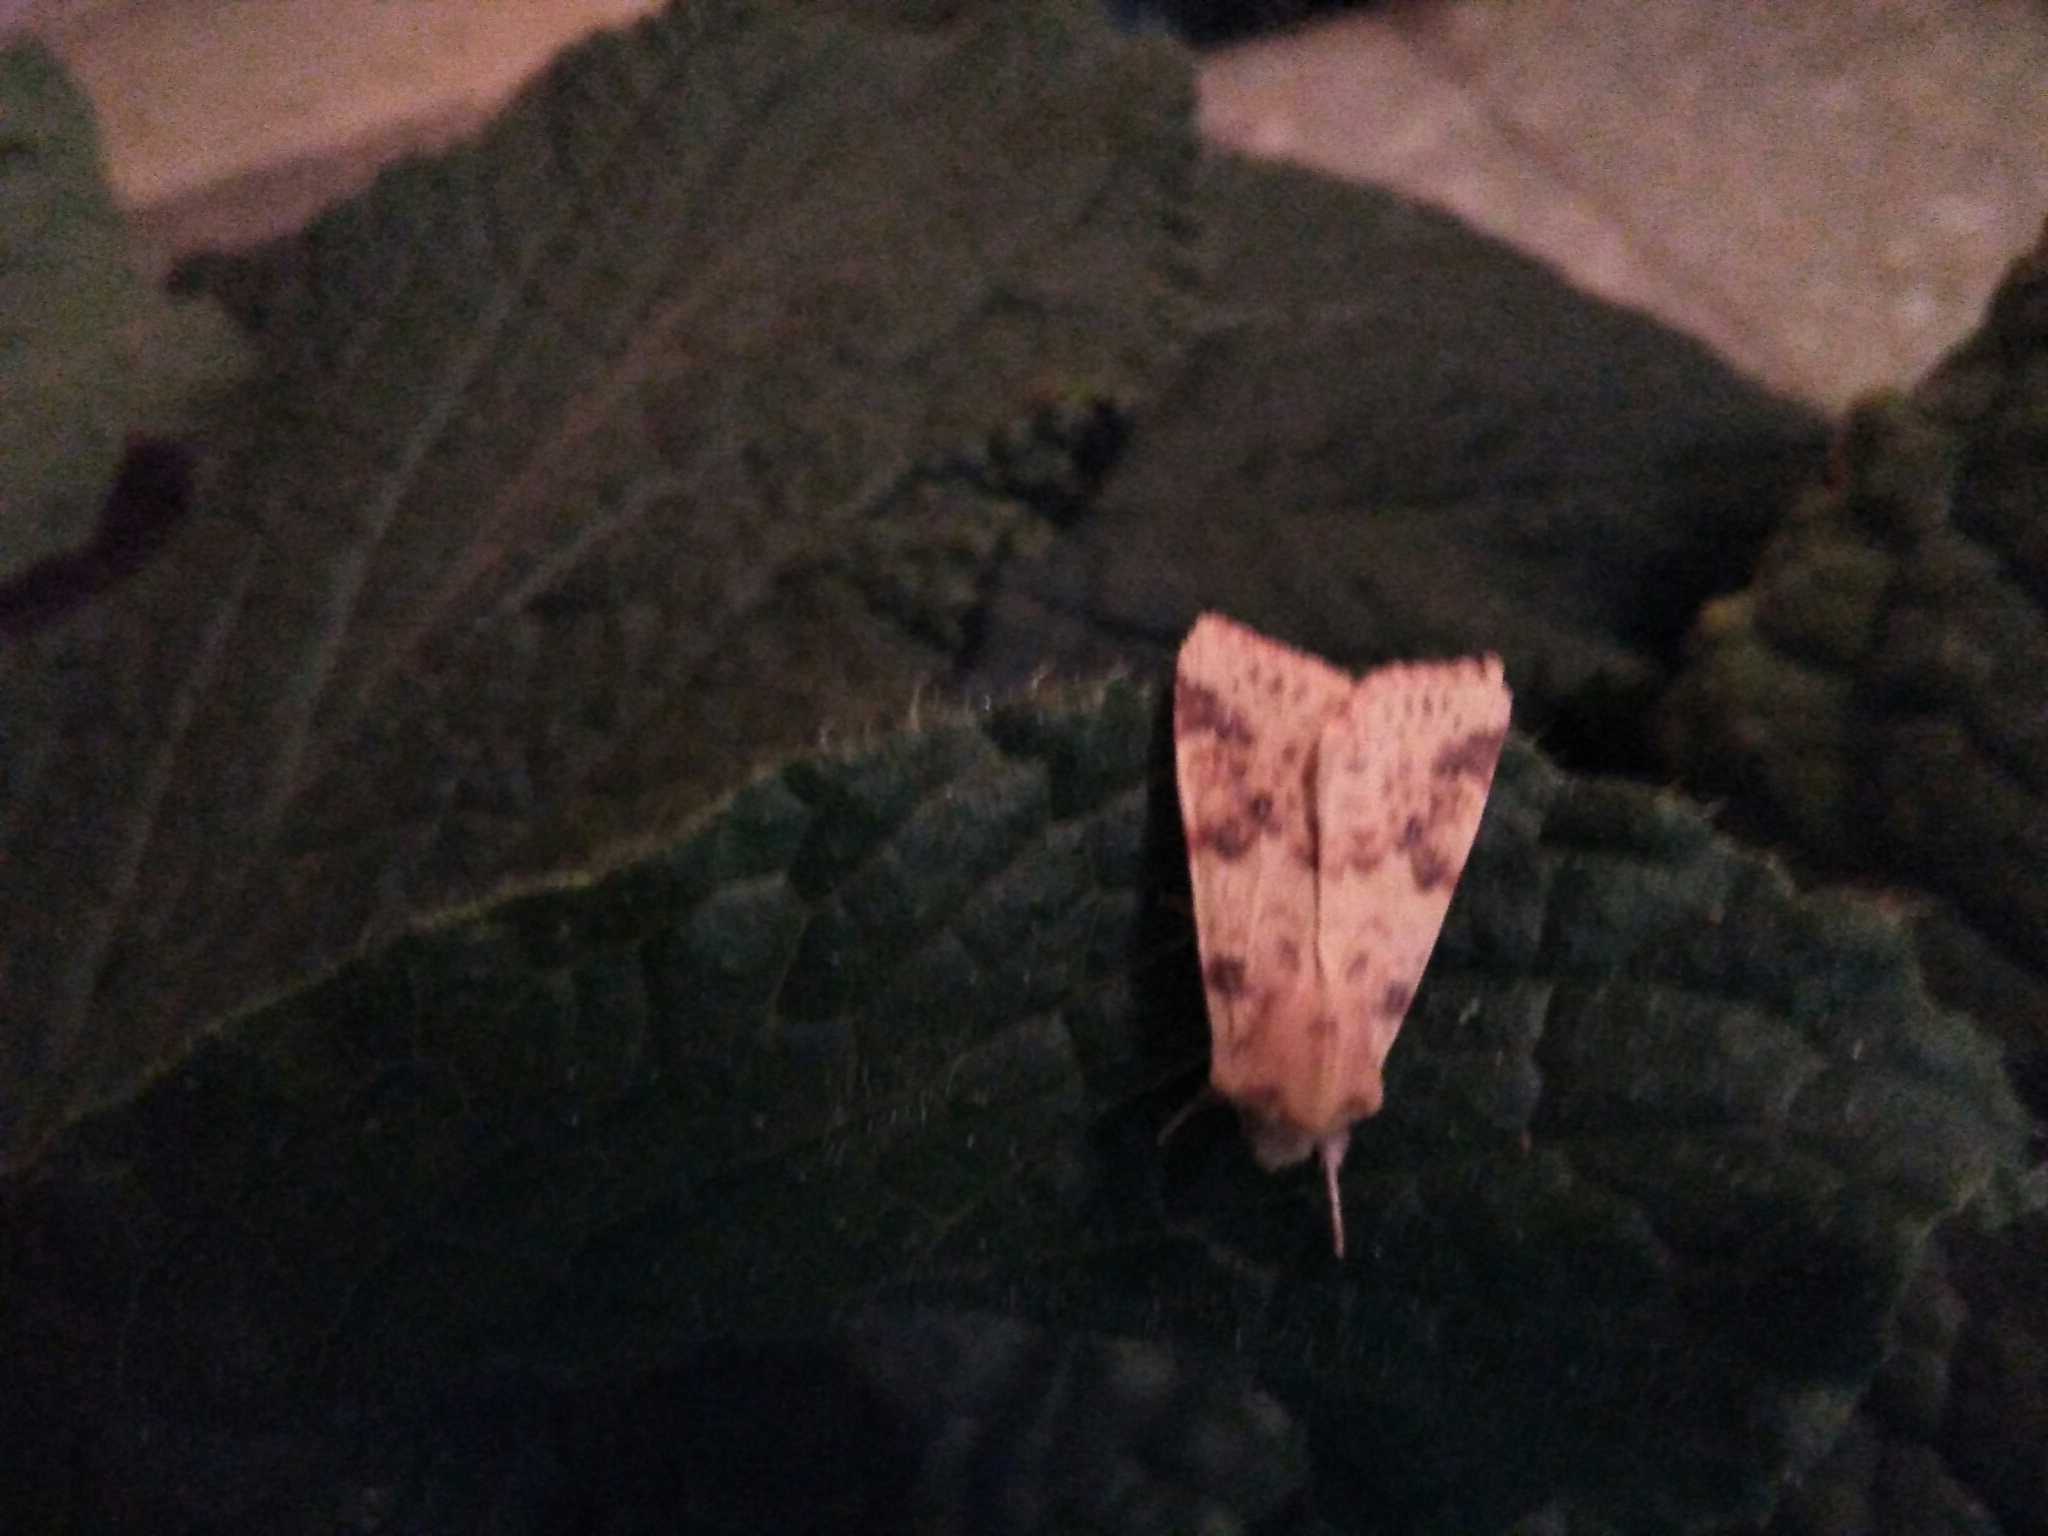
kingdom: Animalia
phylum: Arthropoda
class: Insecta
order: Lepidoptera
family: Noctuidae
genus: Xanthia
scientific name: Xanthia icteritia
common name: The sallow
